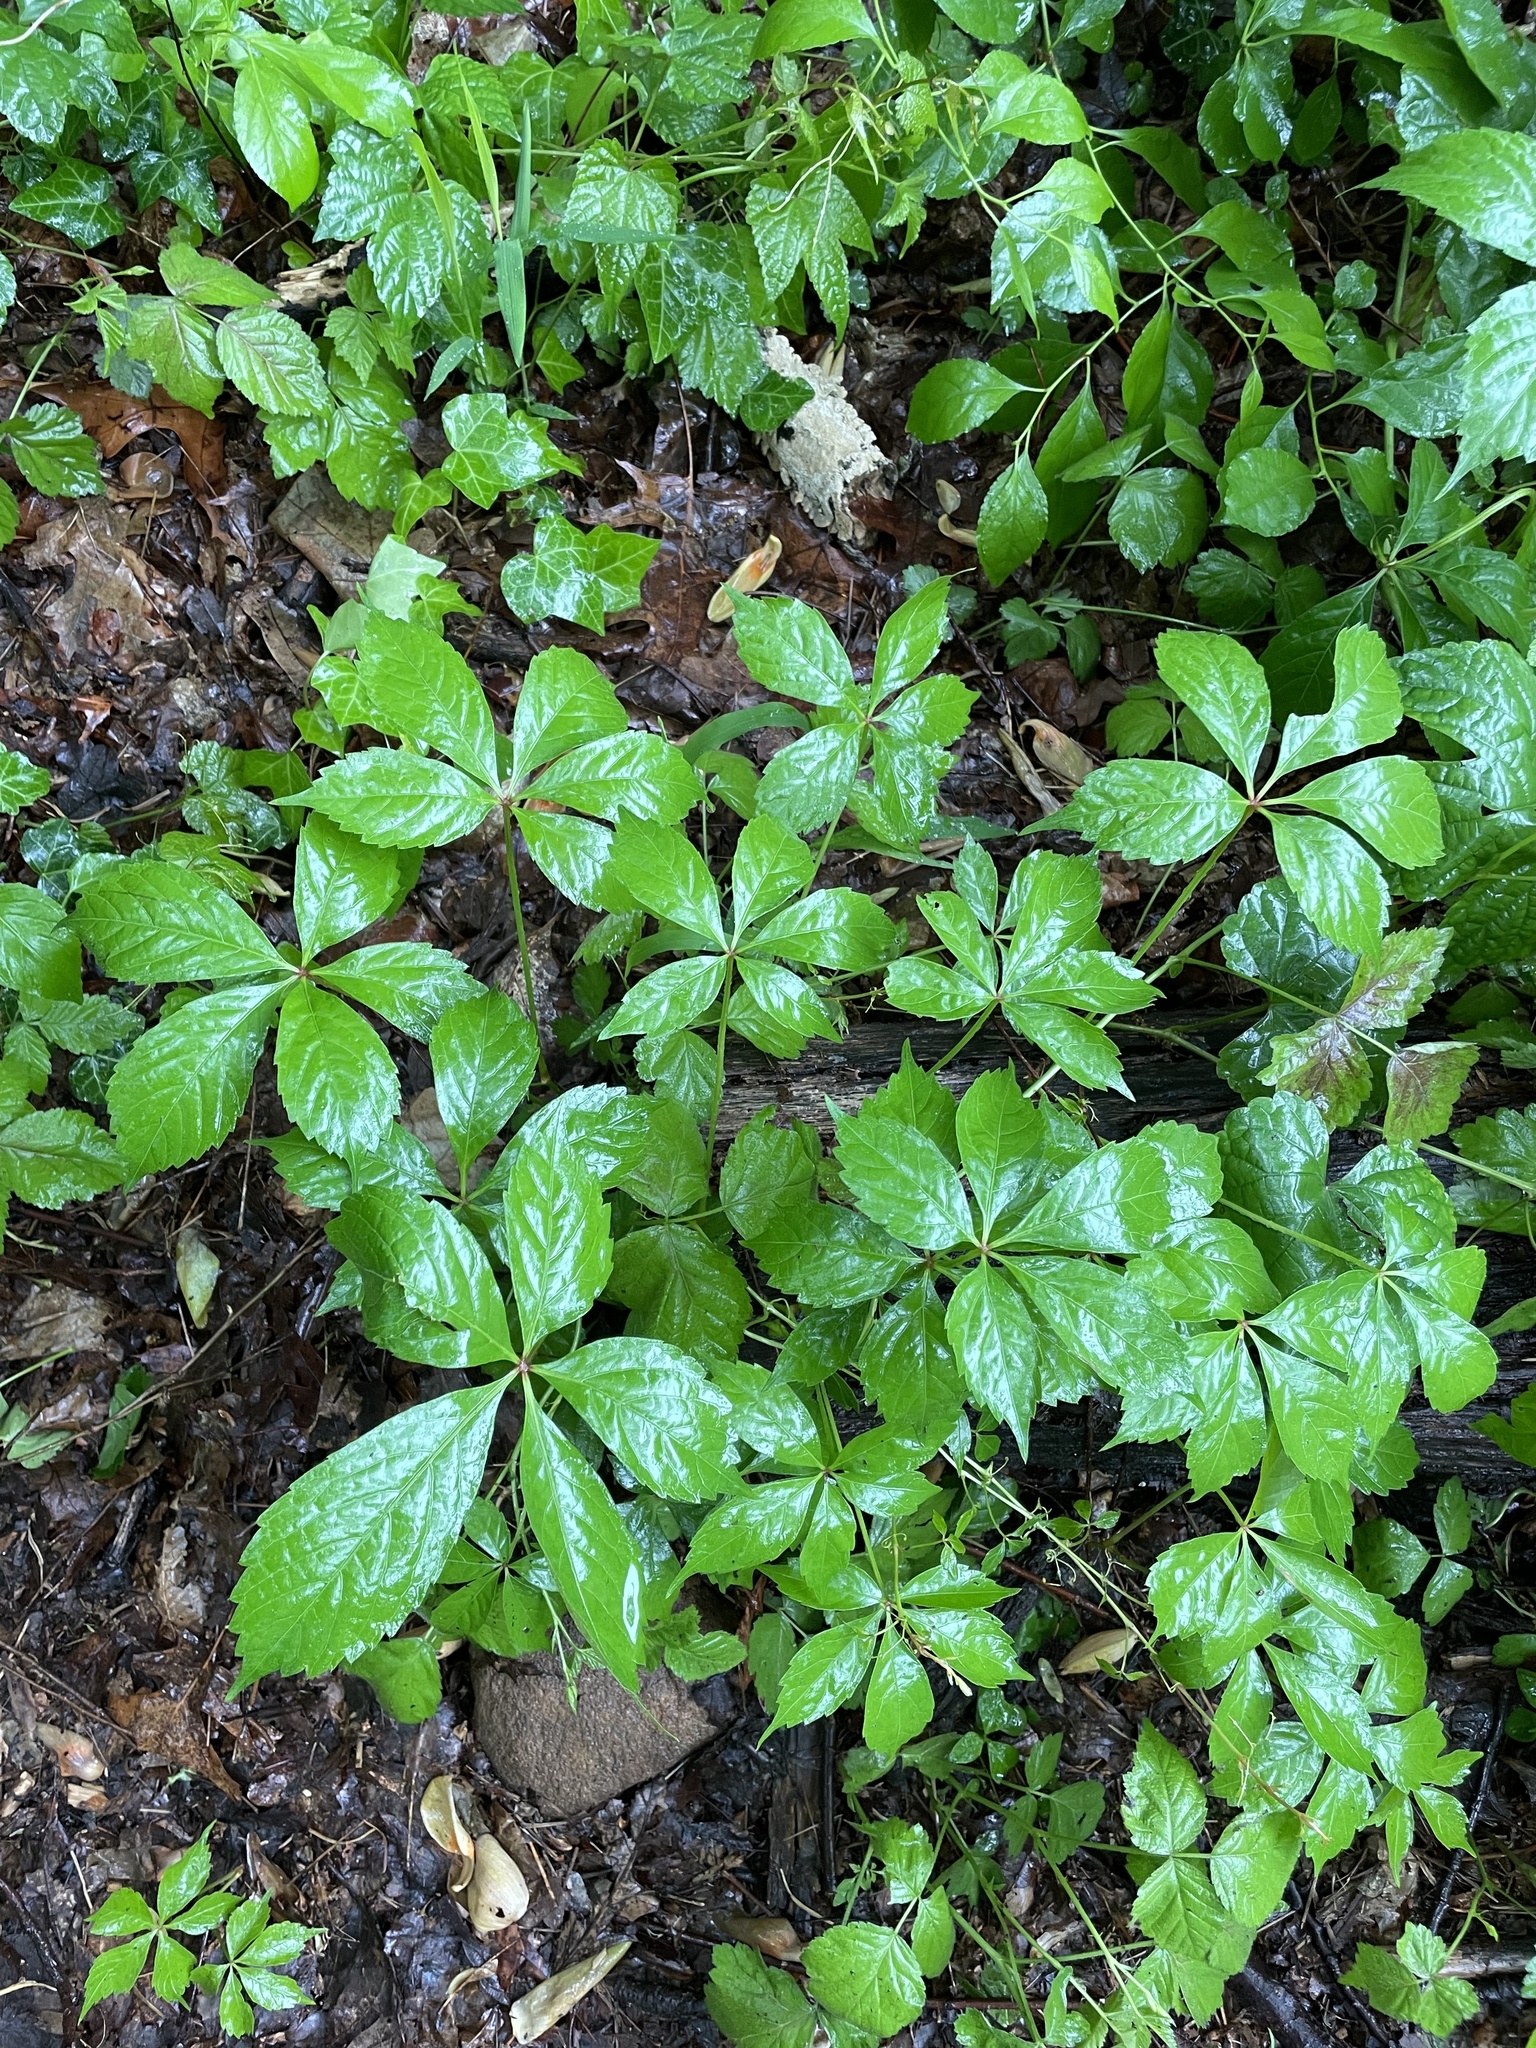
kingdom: Plantae
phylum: Tracheophyta
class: Magnoliopsida
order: Vitales
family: Vitaceae
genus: Parthenocissus
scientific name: Parthenocissus quinquefolia
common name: Virginia-creeper
